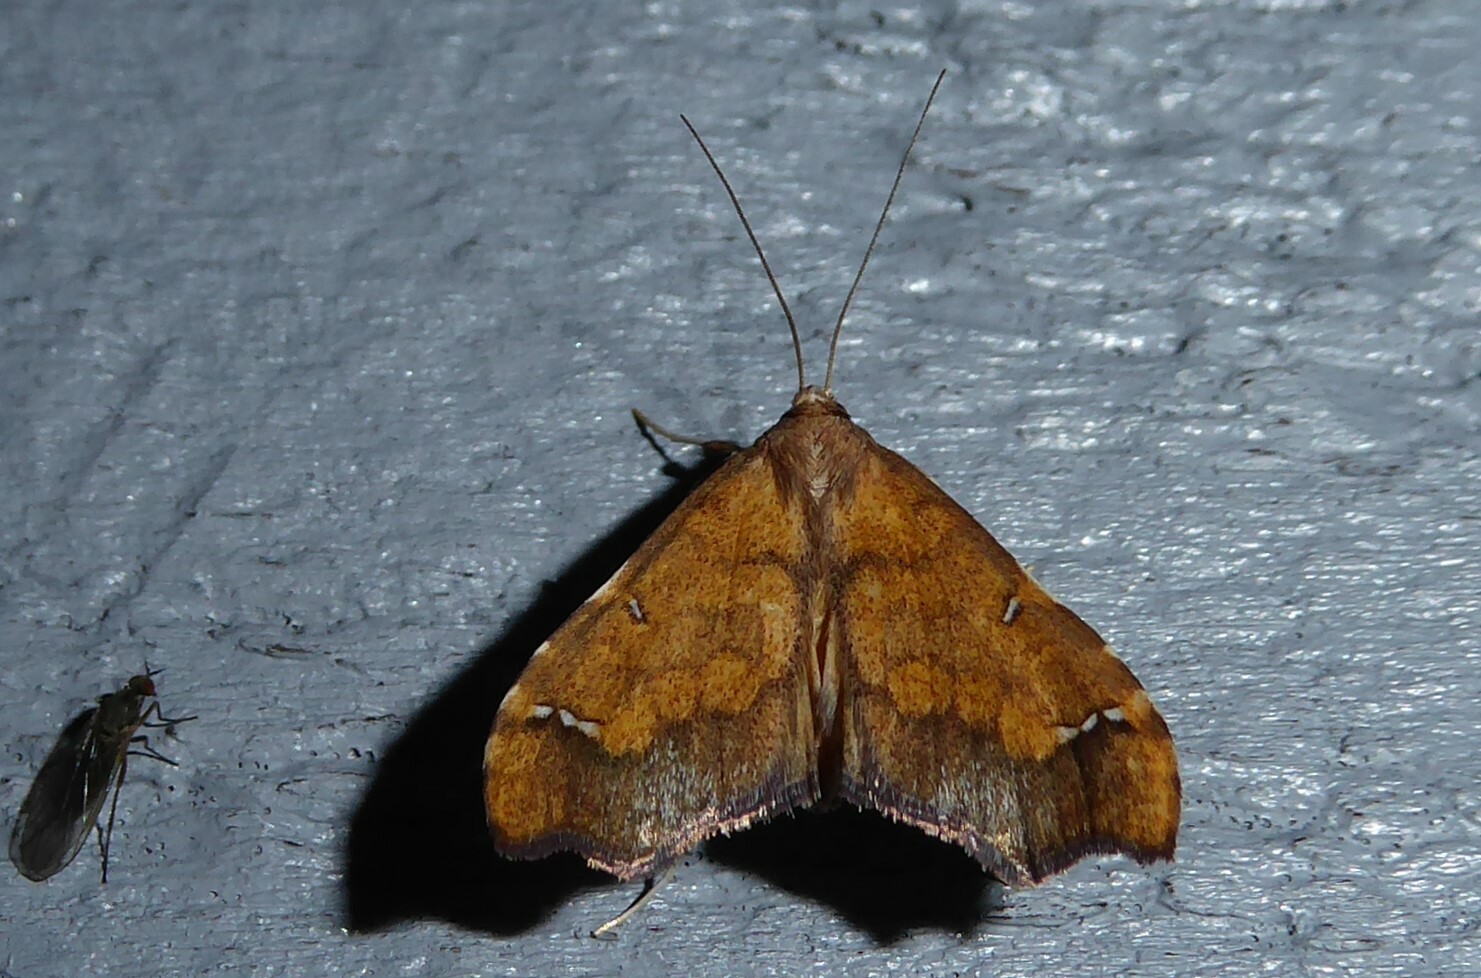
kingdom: Animalia
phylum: Arthropoda
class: Insecta
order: Lepidoptera
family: Crambidae
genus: Deana
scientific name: Deana hybreasalis
